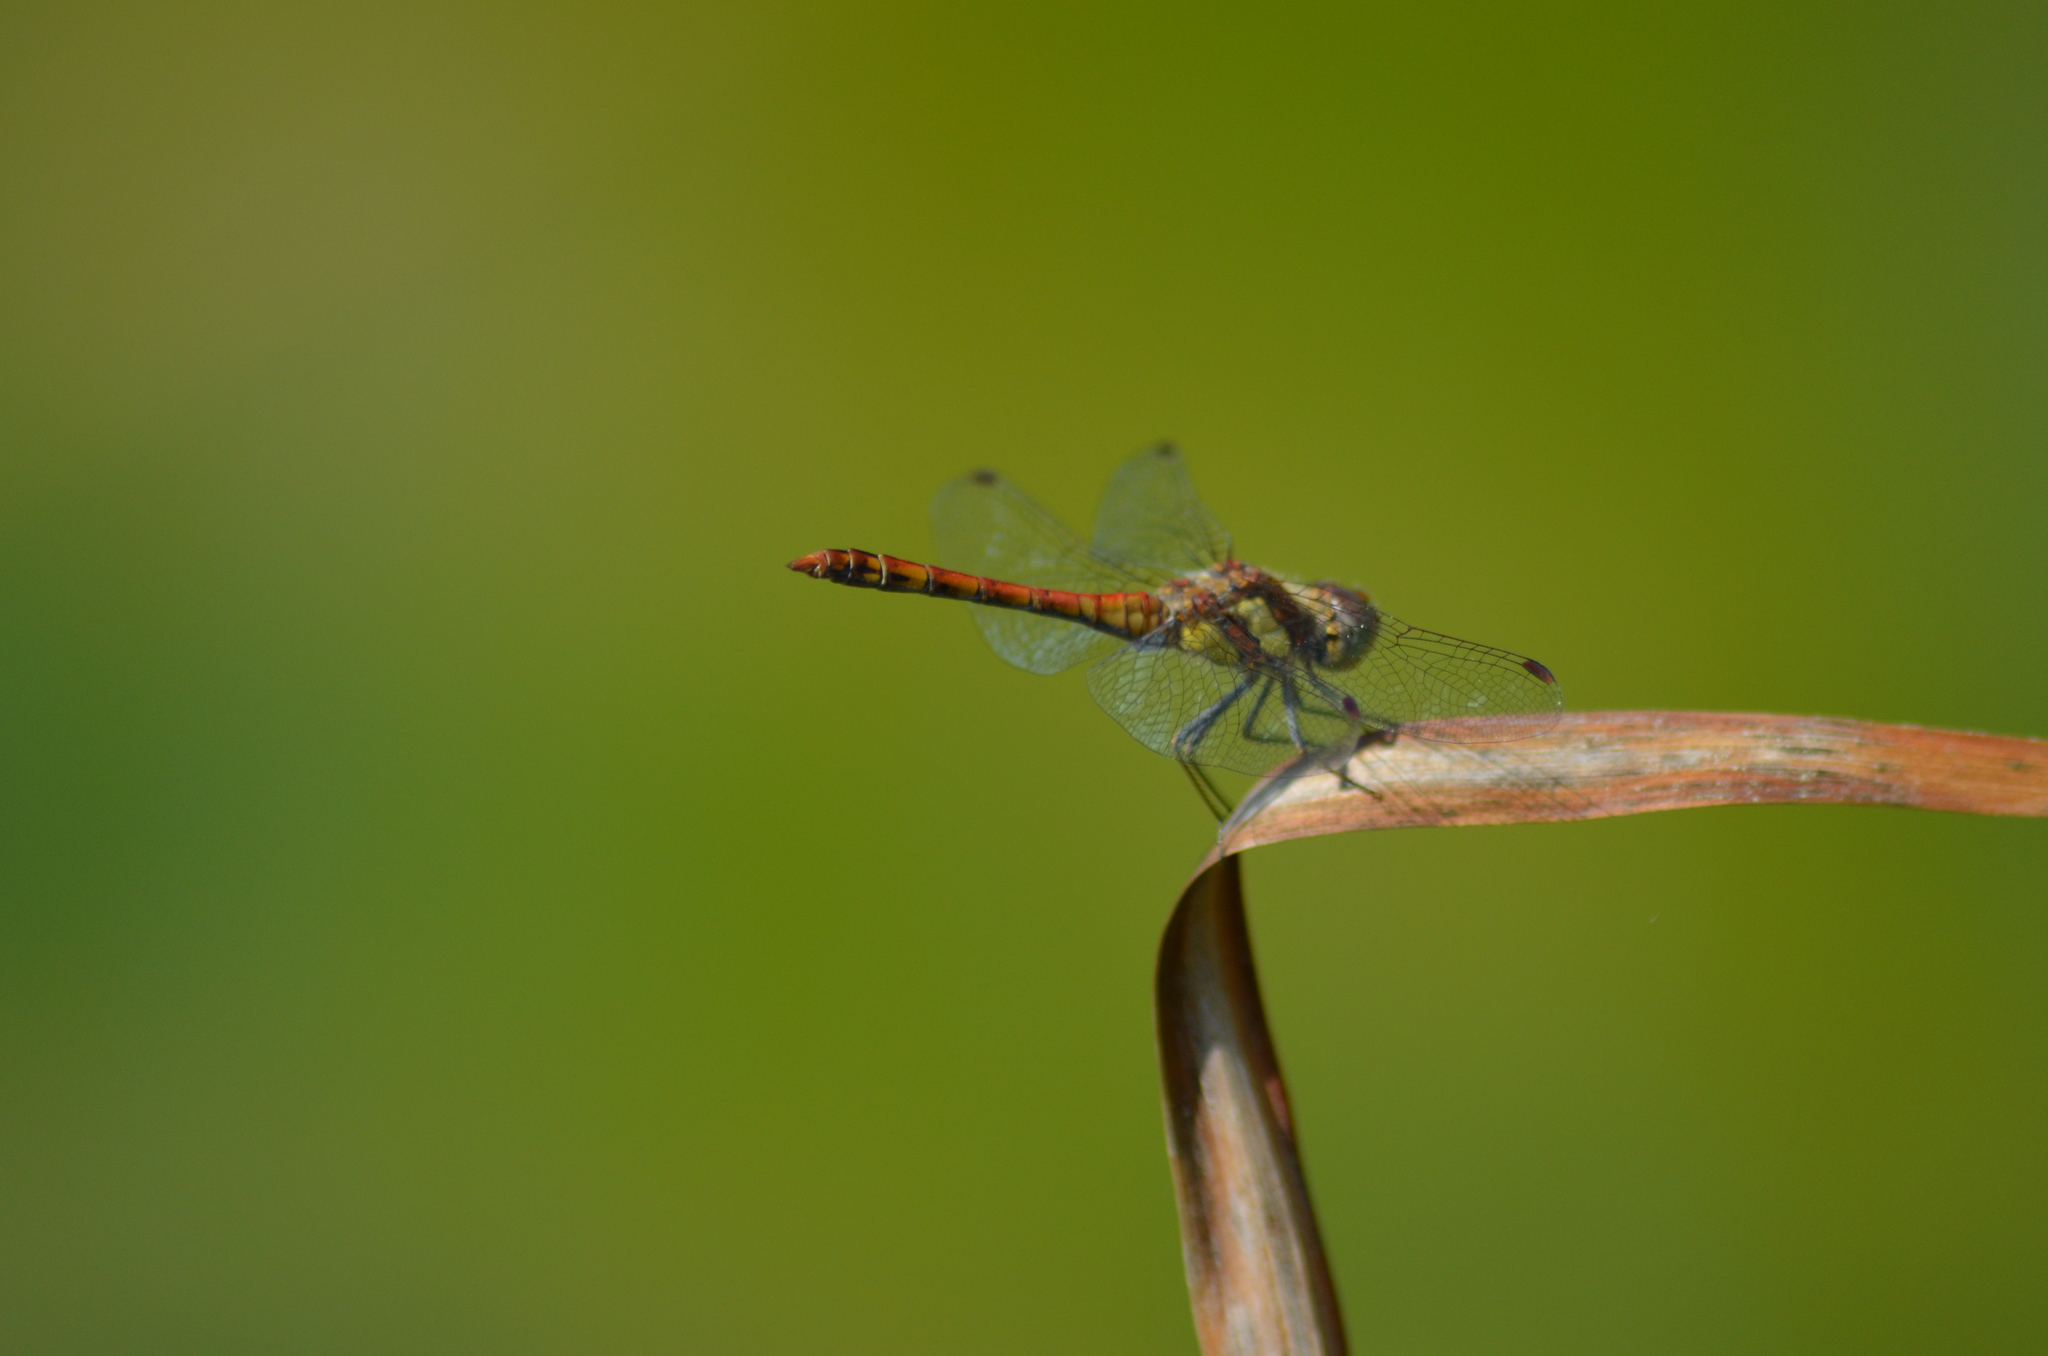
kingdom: Animalia
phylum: Arthropoda
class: Insecta
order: Odonata
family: Libellulidae
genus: Sympetrum
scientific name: Sympetrum striolatum
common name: Common darter
